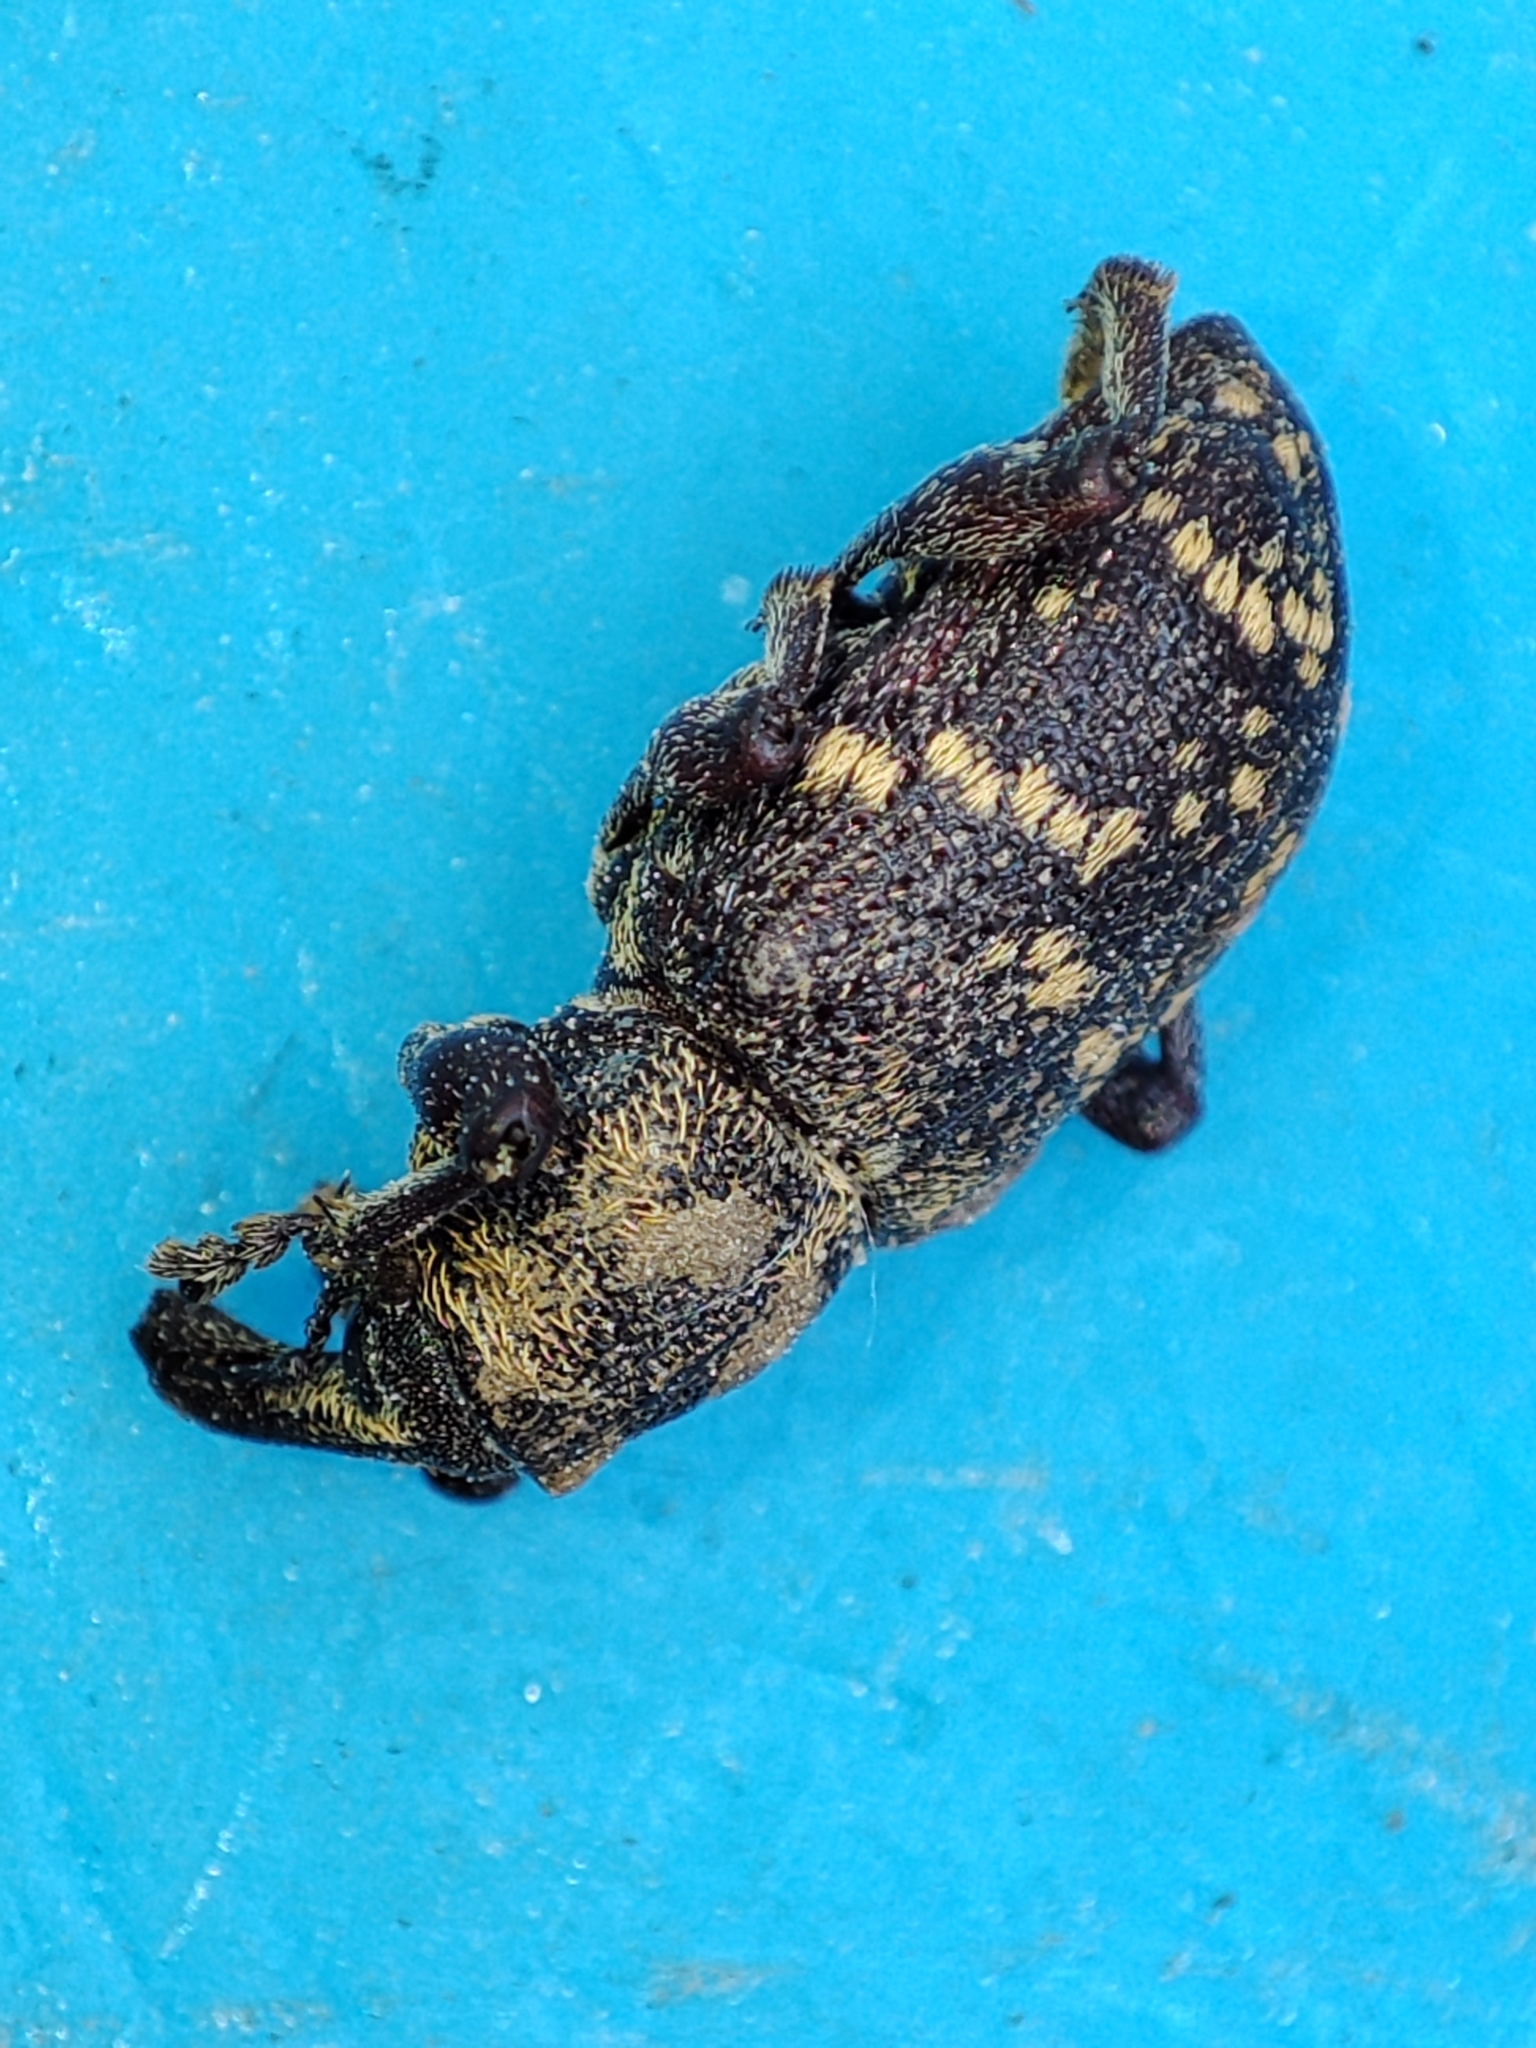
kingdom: Animalia
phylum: Arthropoda
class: Insecta
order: Coleoptera
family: Curculionidae
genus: Hylobius
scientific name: Hylobius abietis
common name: Large pine weevil
